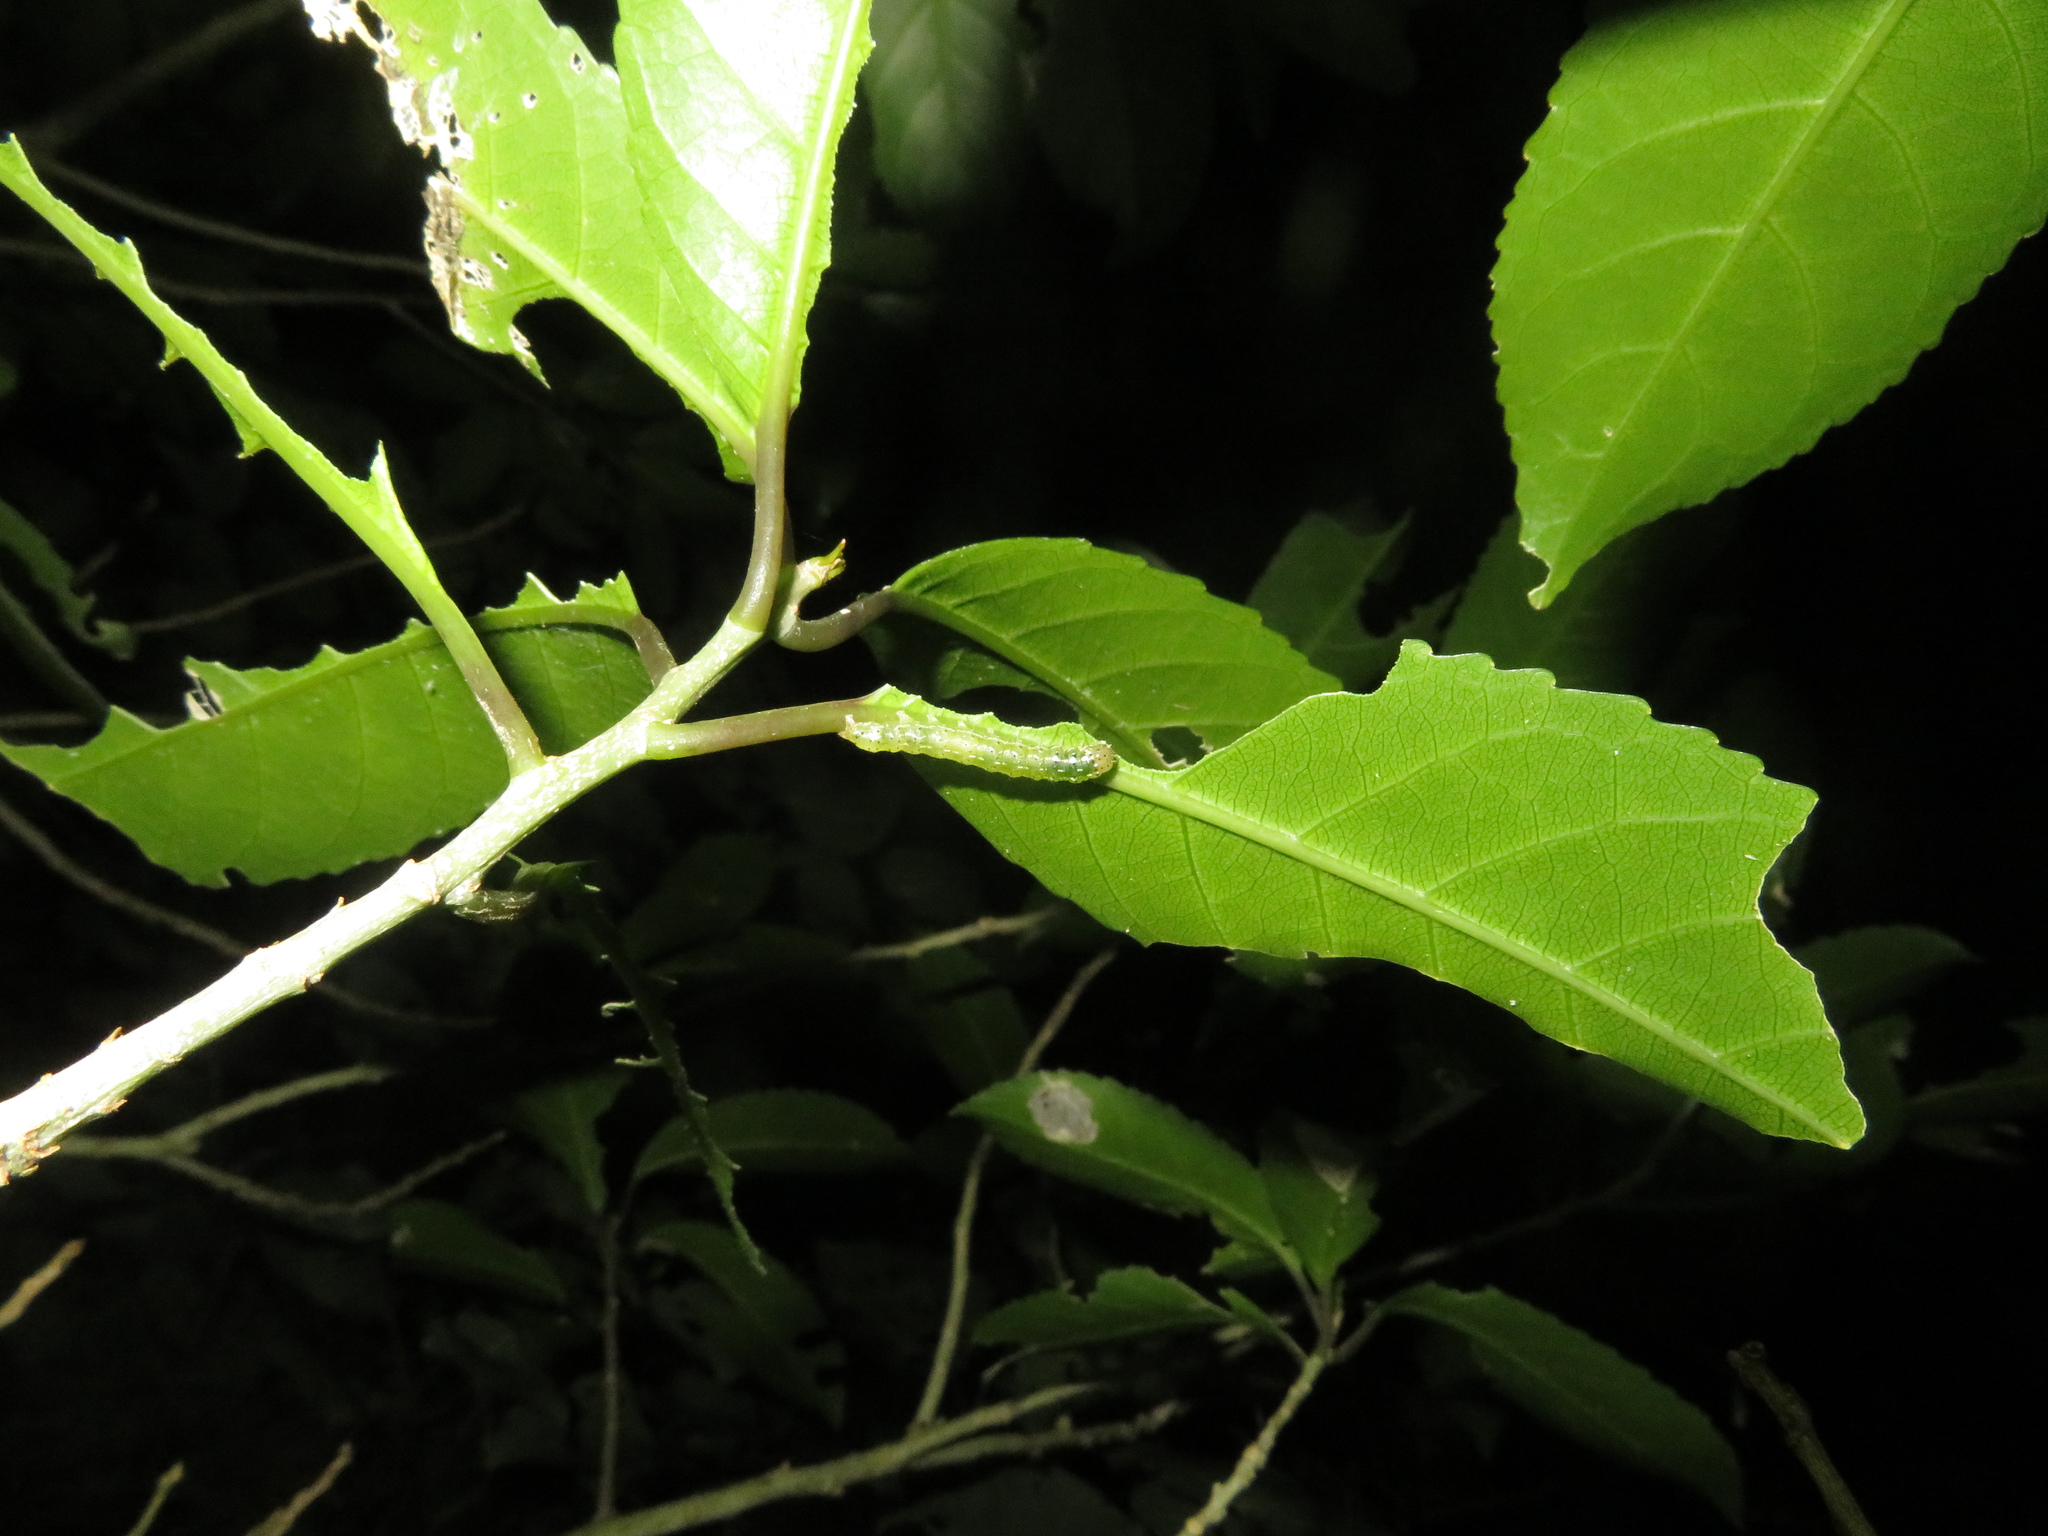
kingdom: Animalia
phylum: Arthropoda
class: Insecta
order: Lepidoptera
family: Noctuidae
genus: Feredayia
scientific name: Feredayia grammosa
